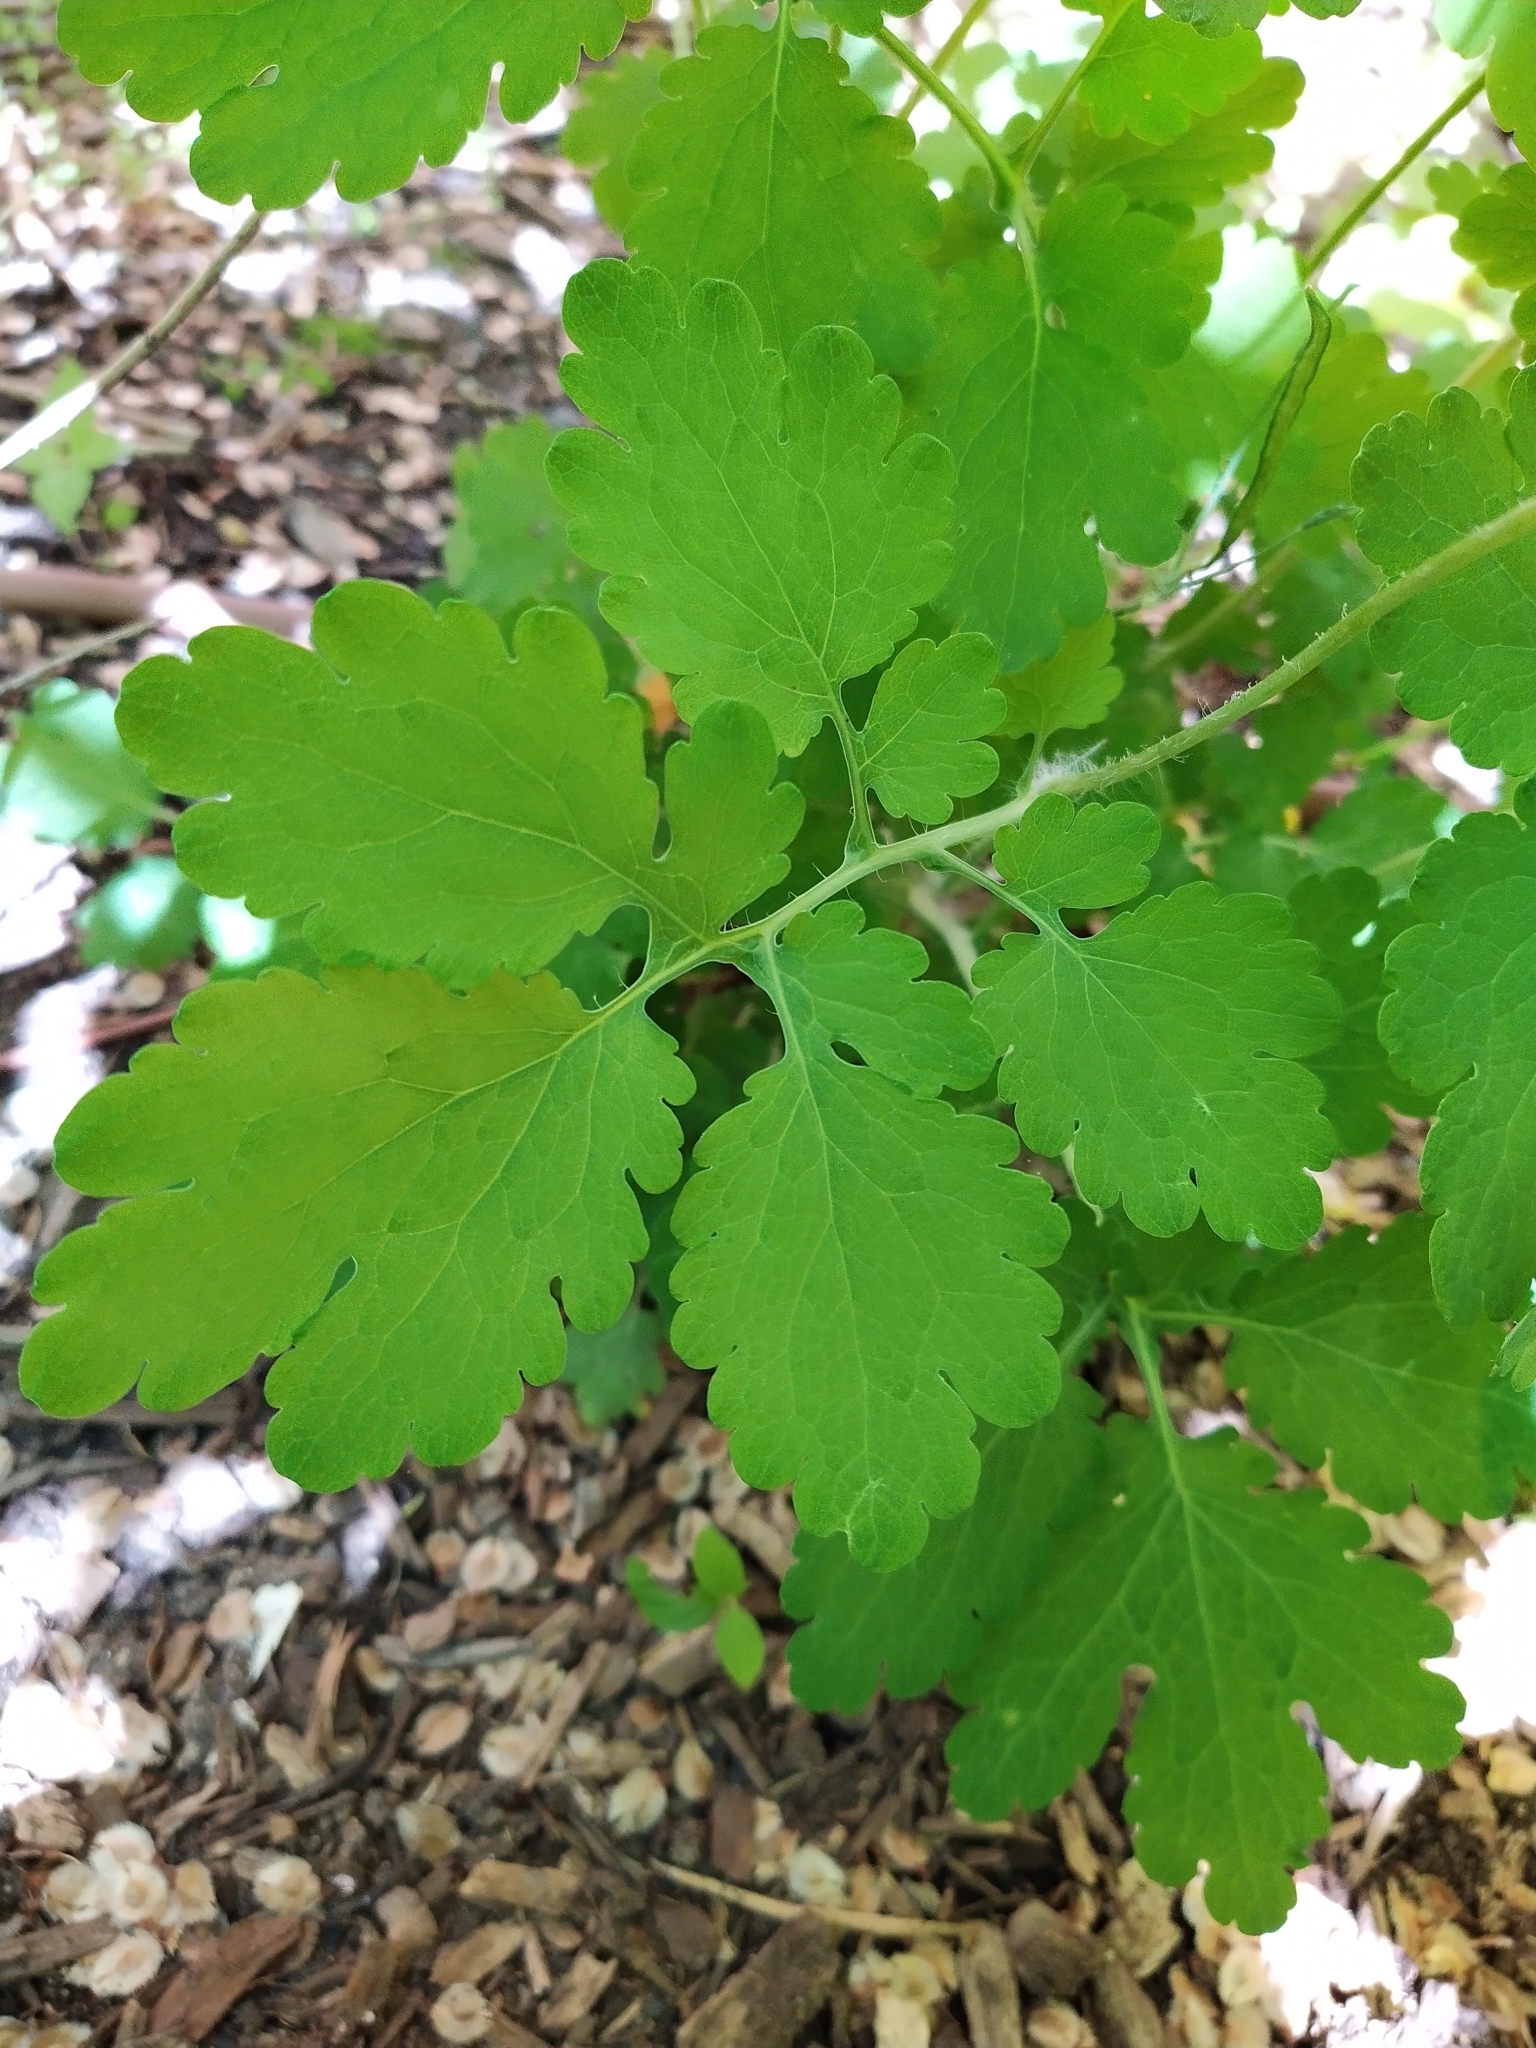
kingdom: Plantae
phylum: Tracheophyta
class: Magnoliopsida
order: Ranunculales
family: Papaveraceae
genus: Chelidonium
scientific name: Chelidonium majus
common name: Greater celandine
